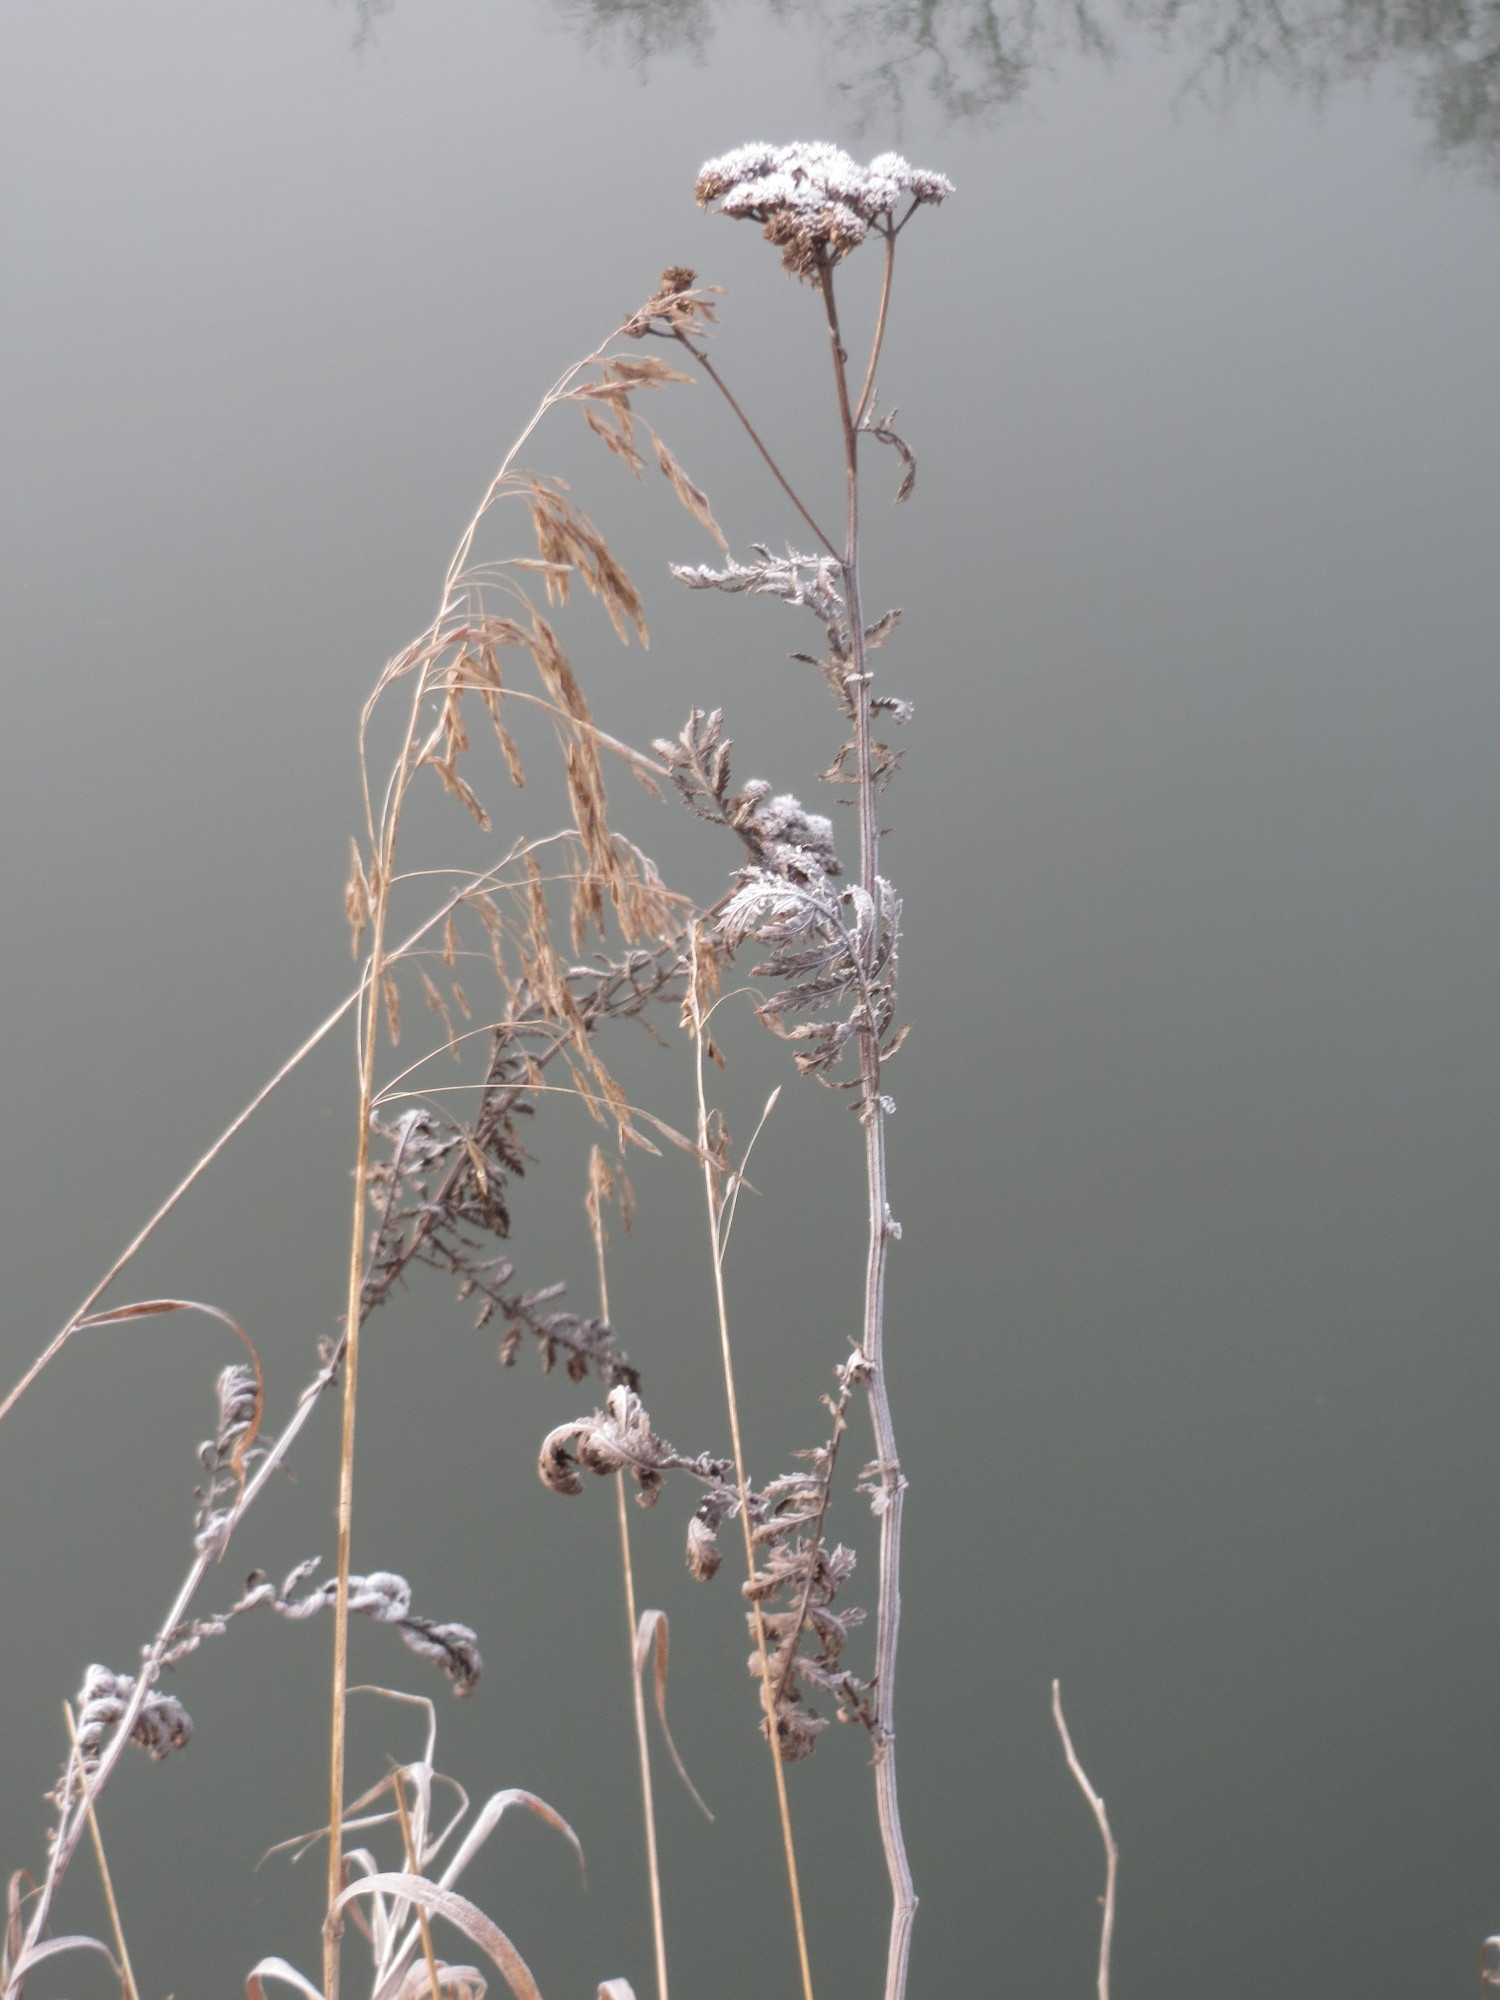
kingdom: Plantae
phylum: Tracheophyta
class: Magnoliopsida
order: Asterales
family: Asteraceae
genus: Tanacetum
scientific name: Tanacetum vulgare
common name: Common tansy
